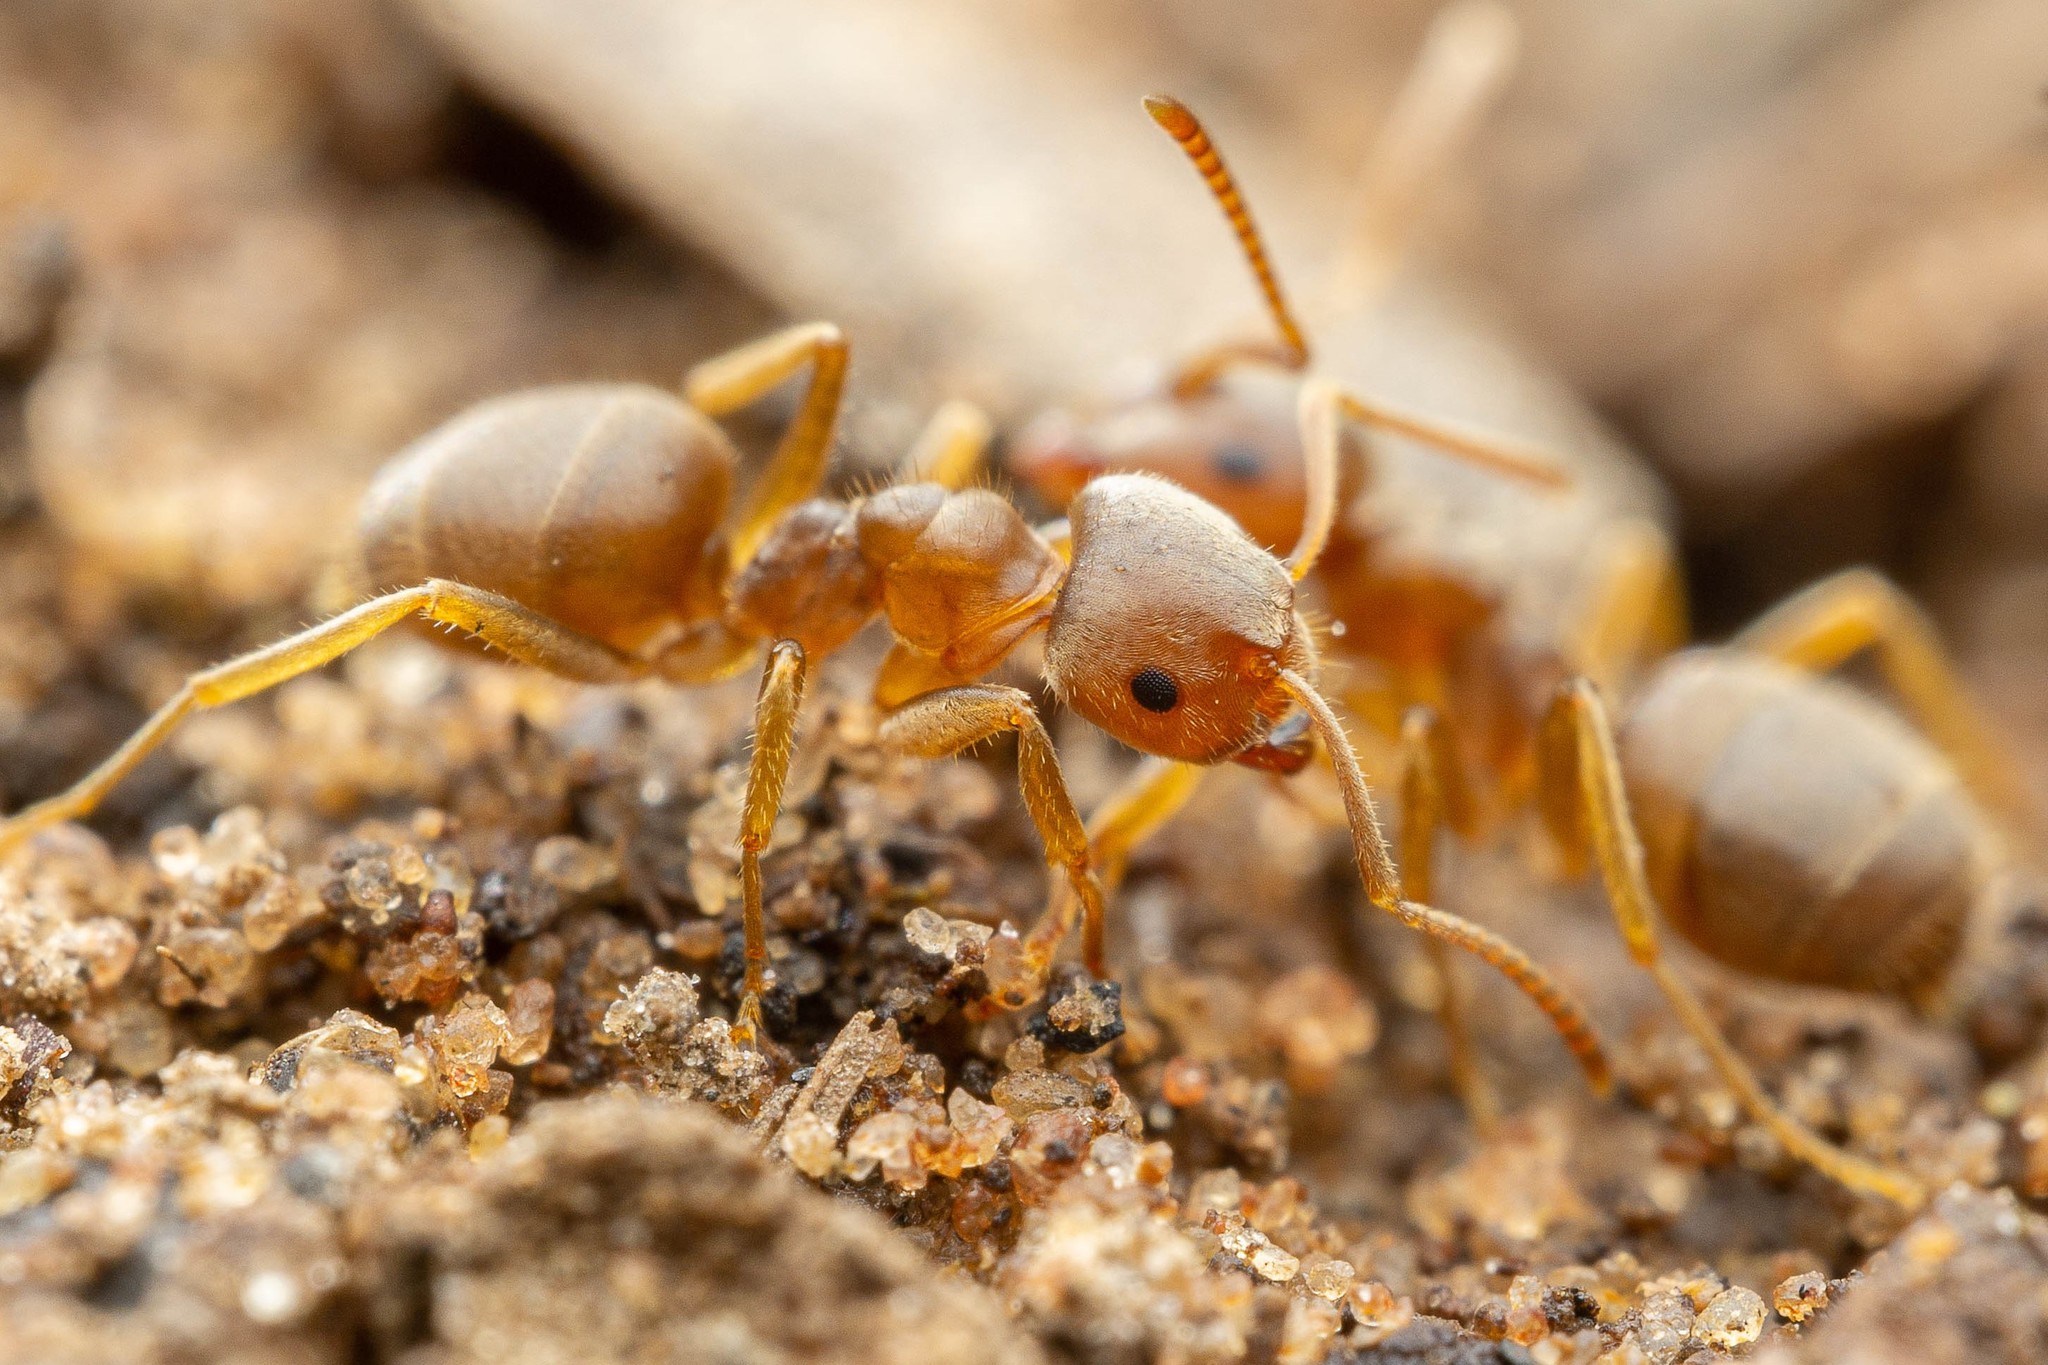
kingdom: Animalia
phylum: Arthropoda
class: Insecta
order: Hymenoptera
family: Formicidae
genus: Lasius
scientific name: Lasius pallitarsis
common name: Subterranean aphid-tending ant
